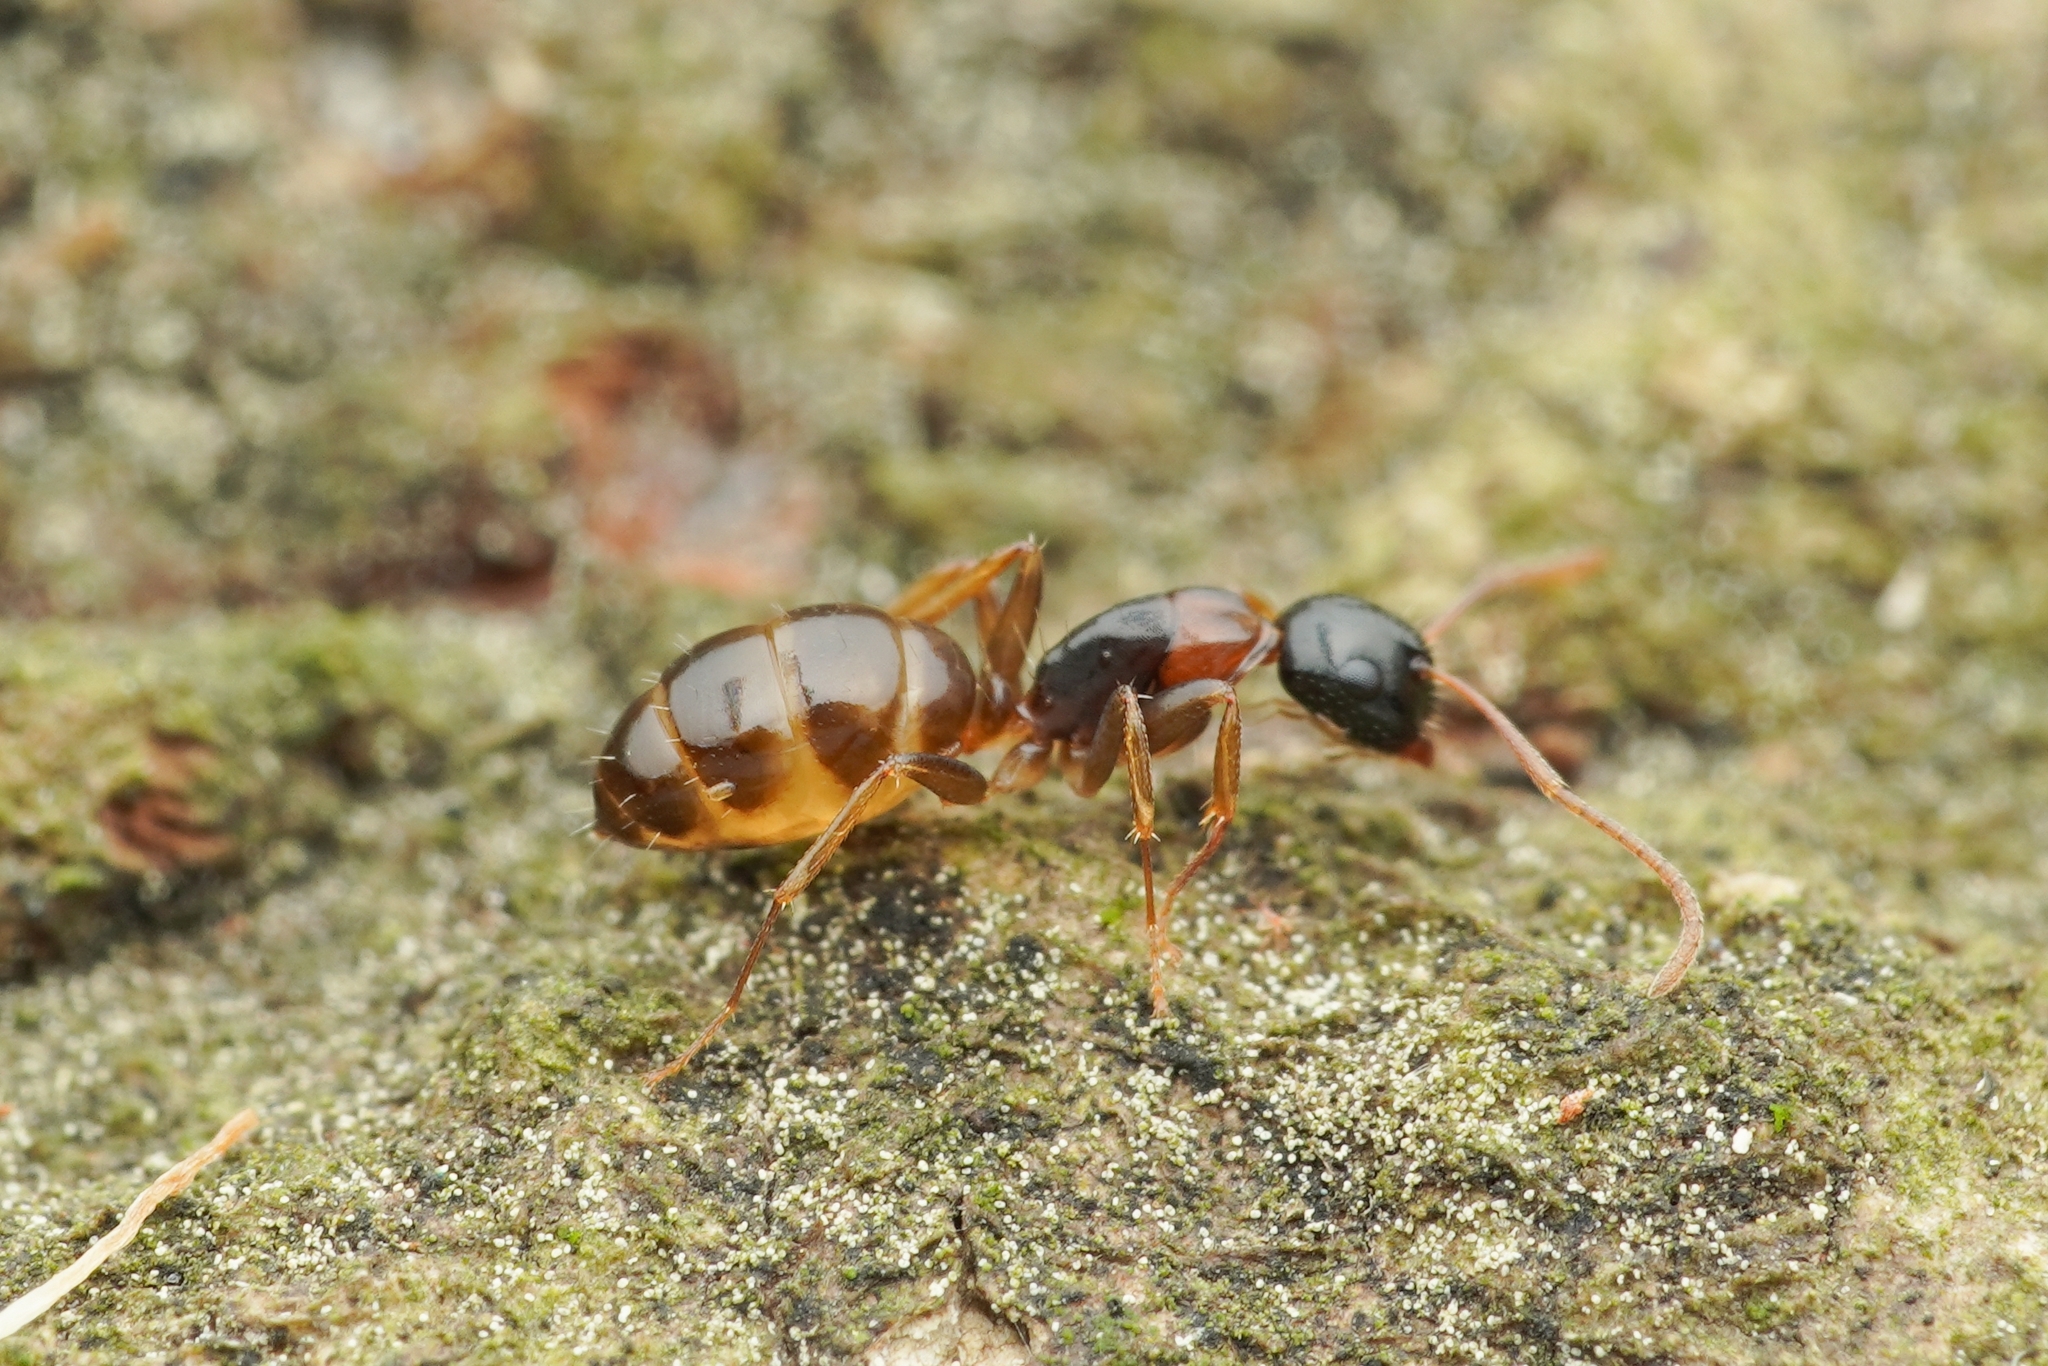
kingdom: Animalia
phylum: Arthropoda
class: Insecta
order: Hymenoptera
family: Formicidae
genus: Camponotus
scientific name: Camponotus nawai
